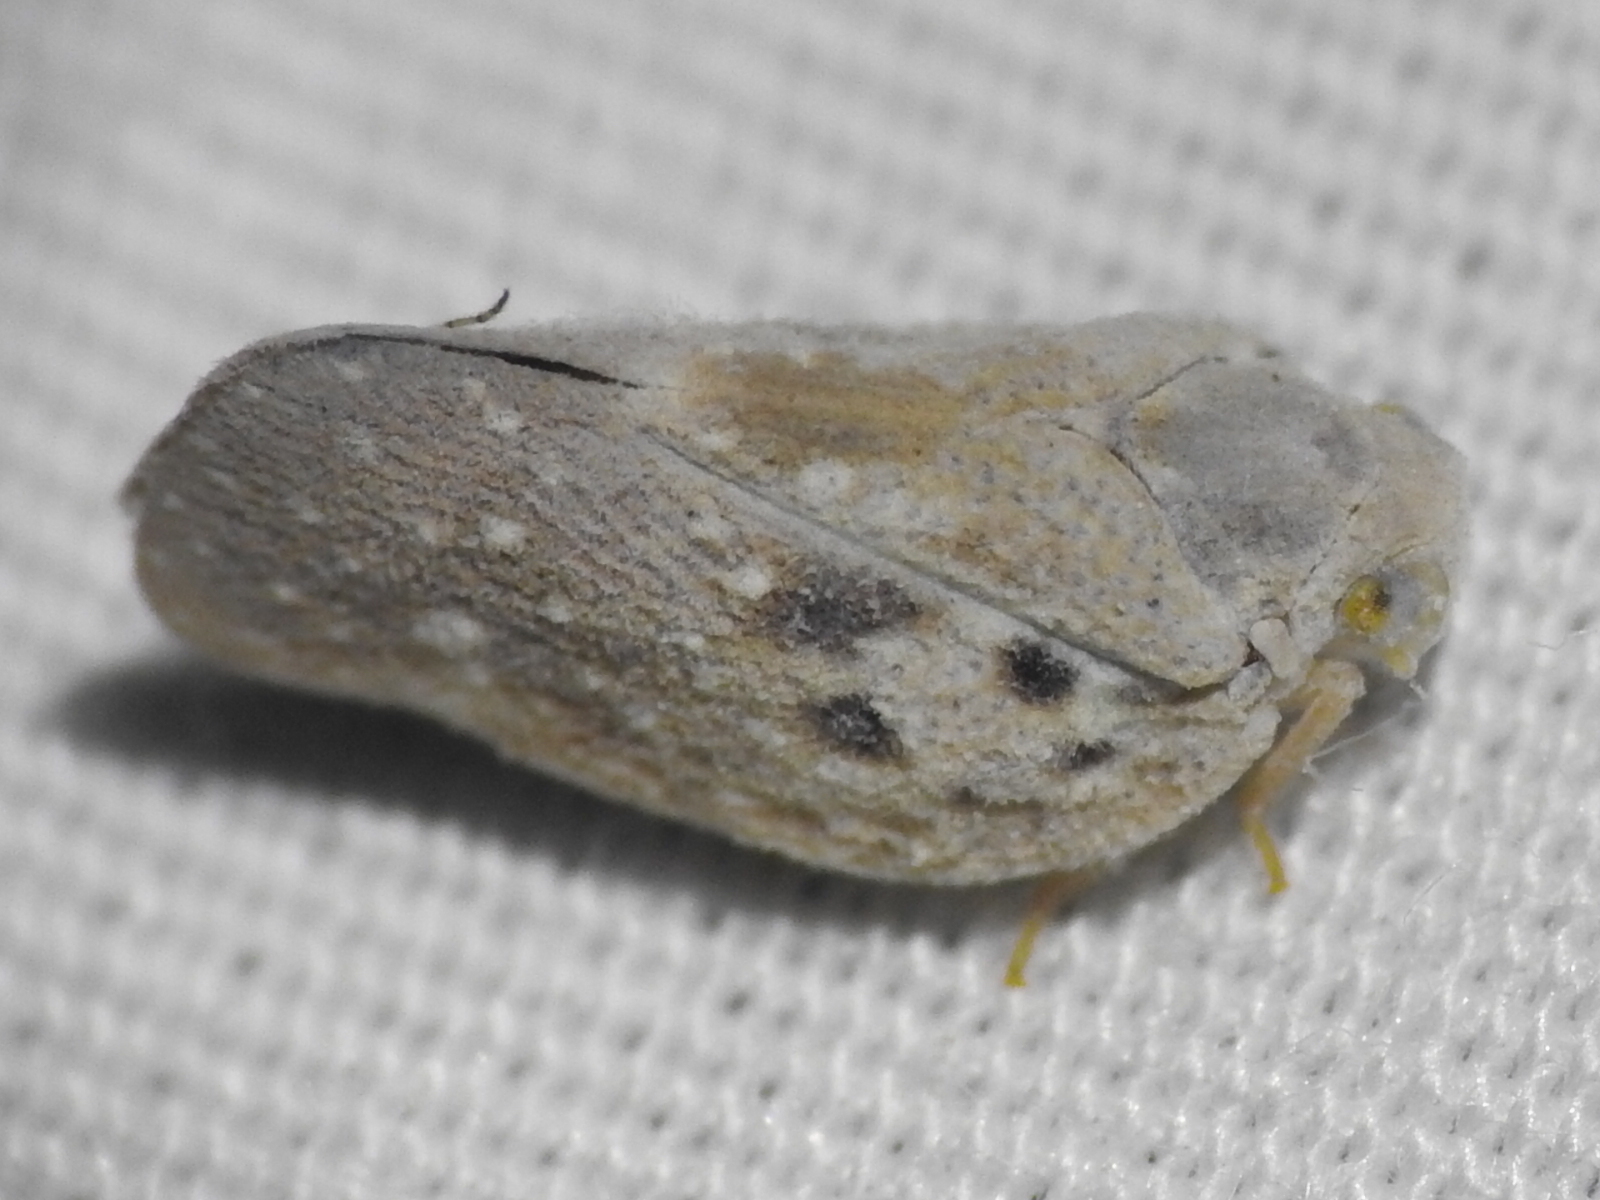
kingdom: Animalia
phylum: Arthropoda
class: Insecta
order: Hemiptera
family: Flatidae
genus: Metcalfa
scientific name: Metcalfa pruinosa
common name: Citrus flatid planthopper
